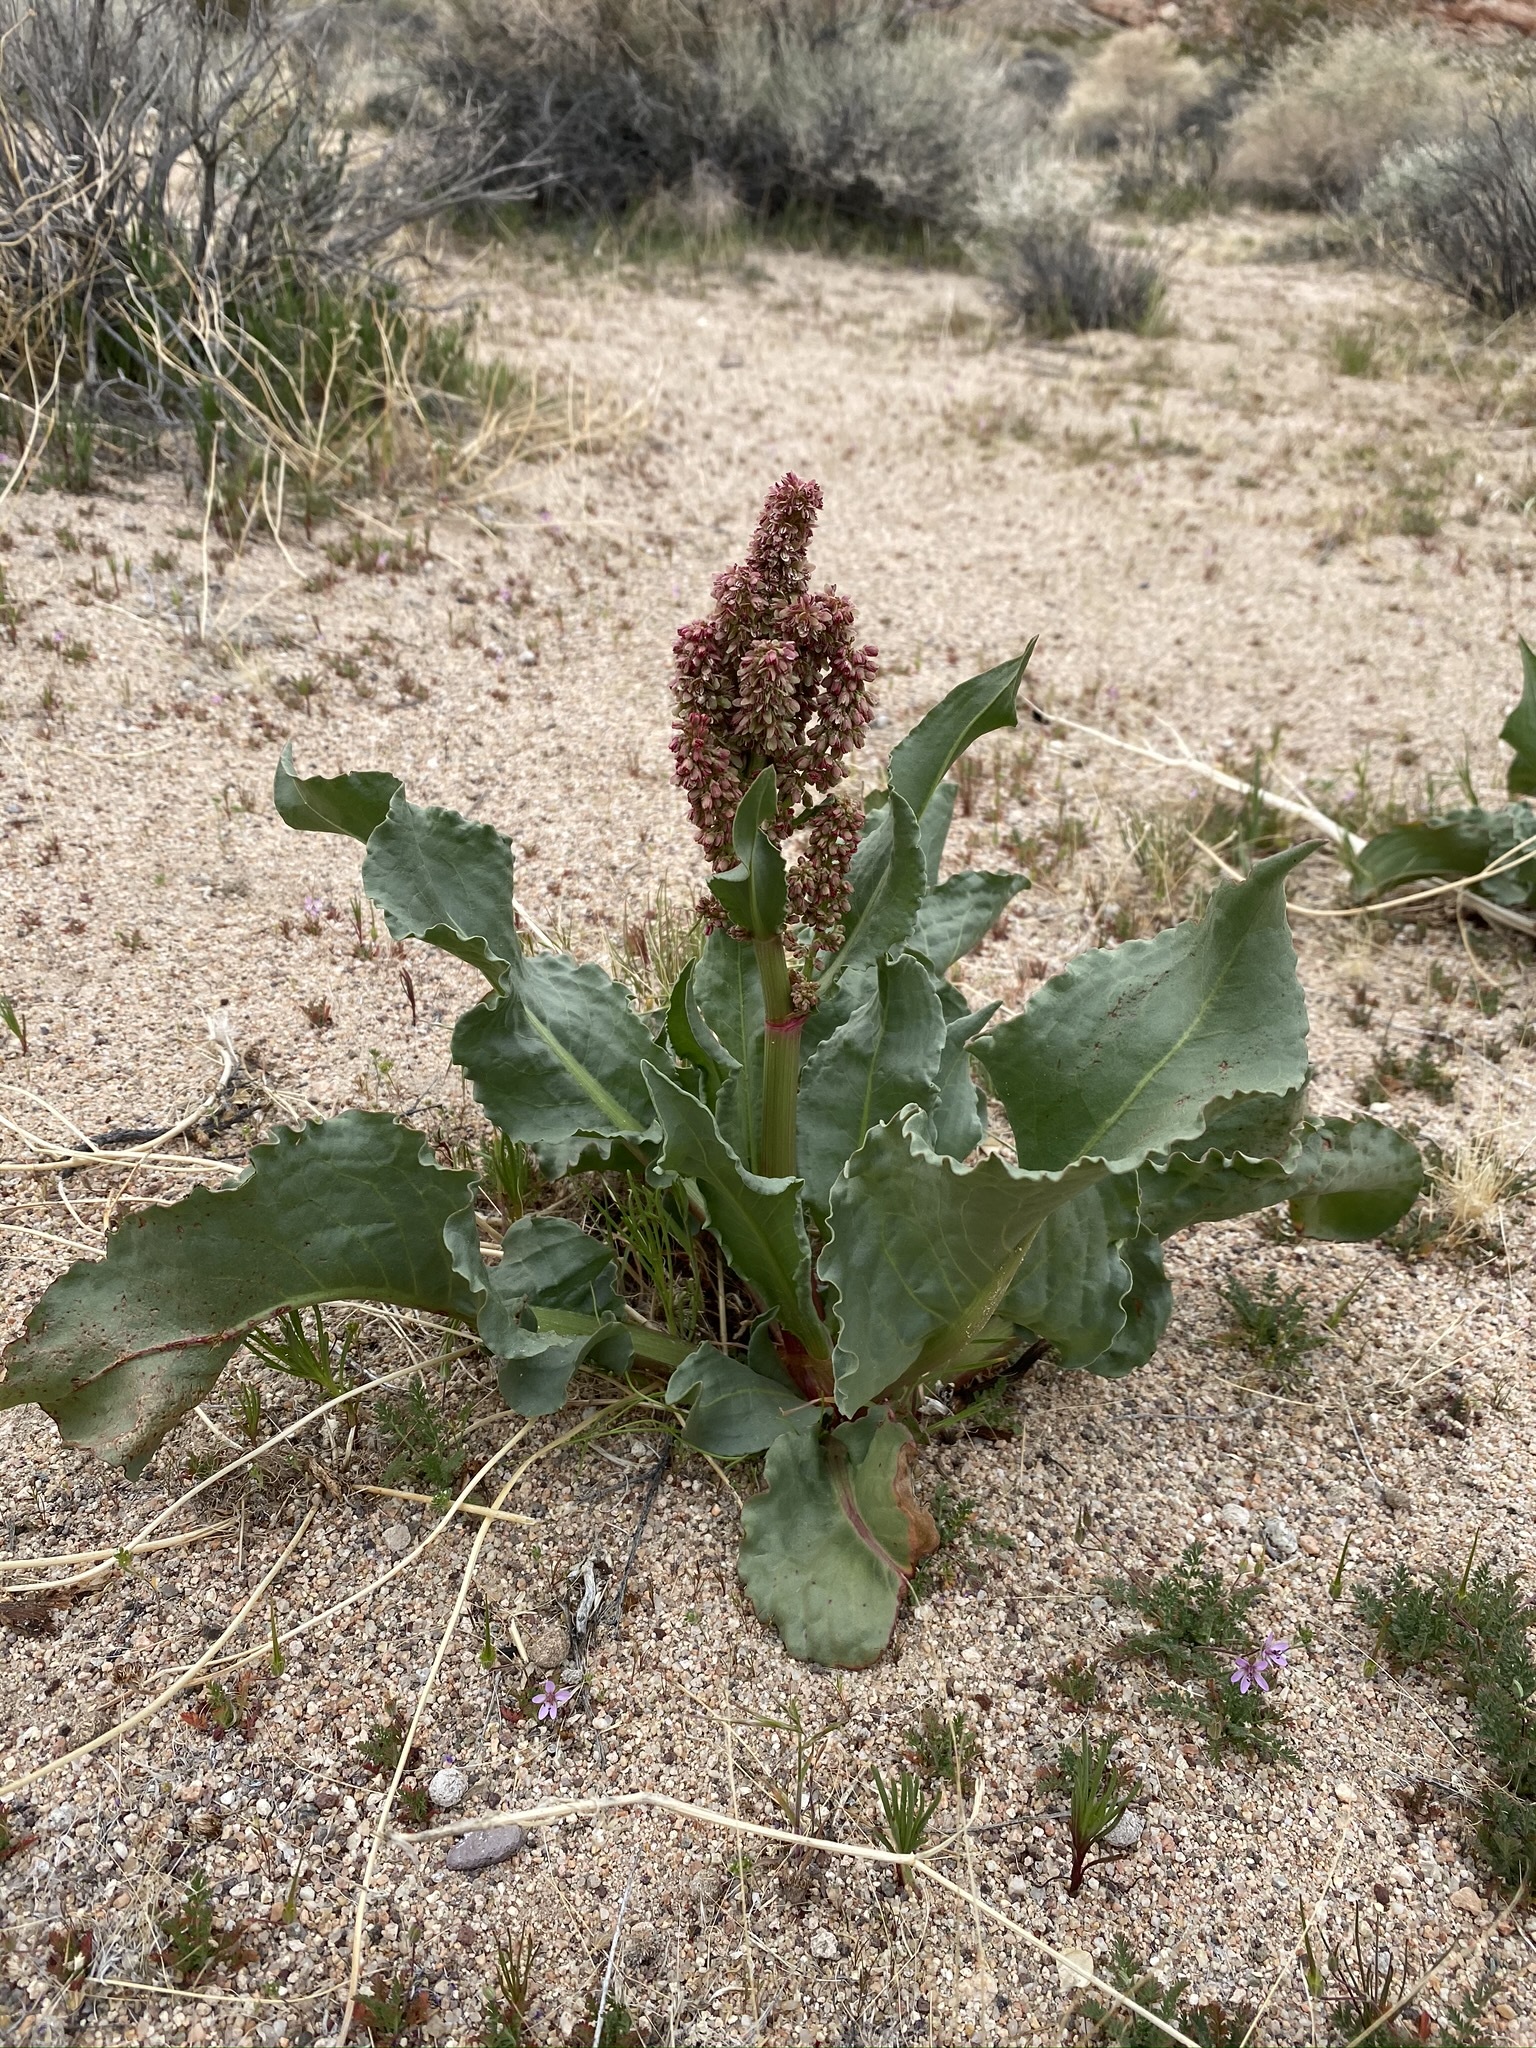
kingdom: Plantae
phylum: Tracheophyta
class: Magnoliopsida
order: Caryophyllales
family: Polygonaceae
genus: Rumex
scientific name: Rumex hymenosepalus
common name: Ganagra
